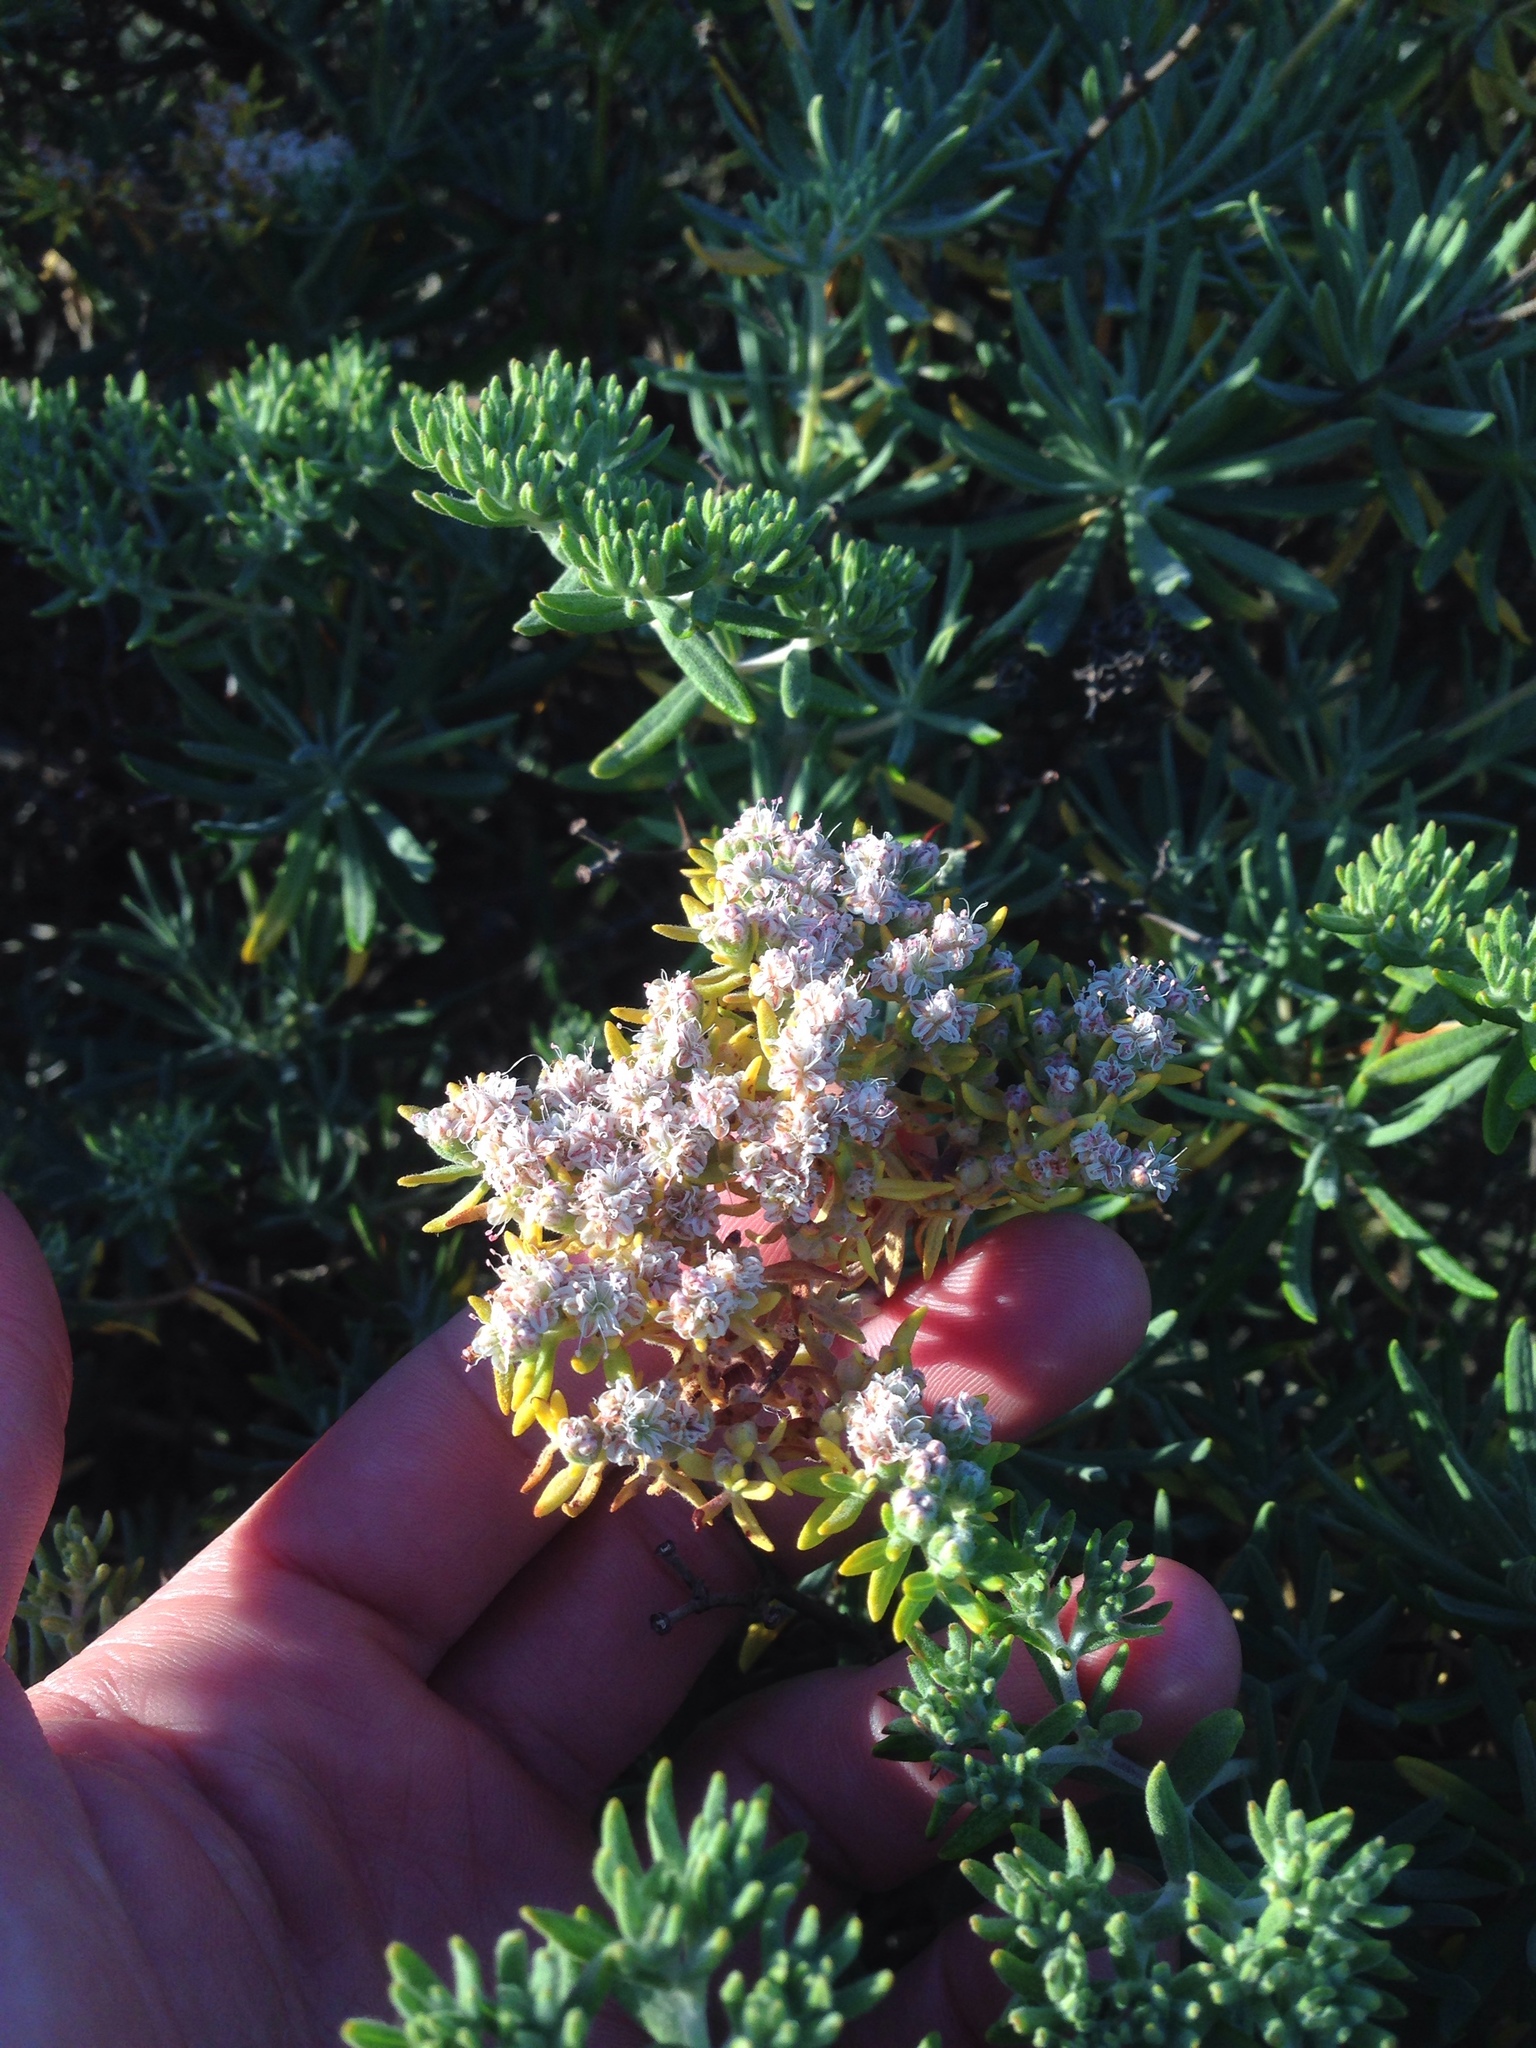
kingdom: Plantae
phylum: Tracheophyta
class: Magnoliopsida
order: Caryophyllales
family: Polygonaceae
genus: Eriogonum
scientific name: Eriogonum arborescens
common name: Island buckwheat
